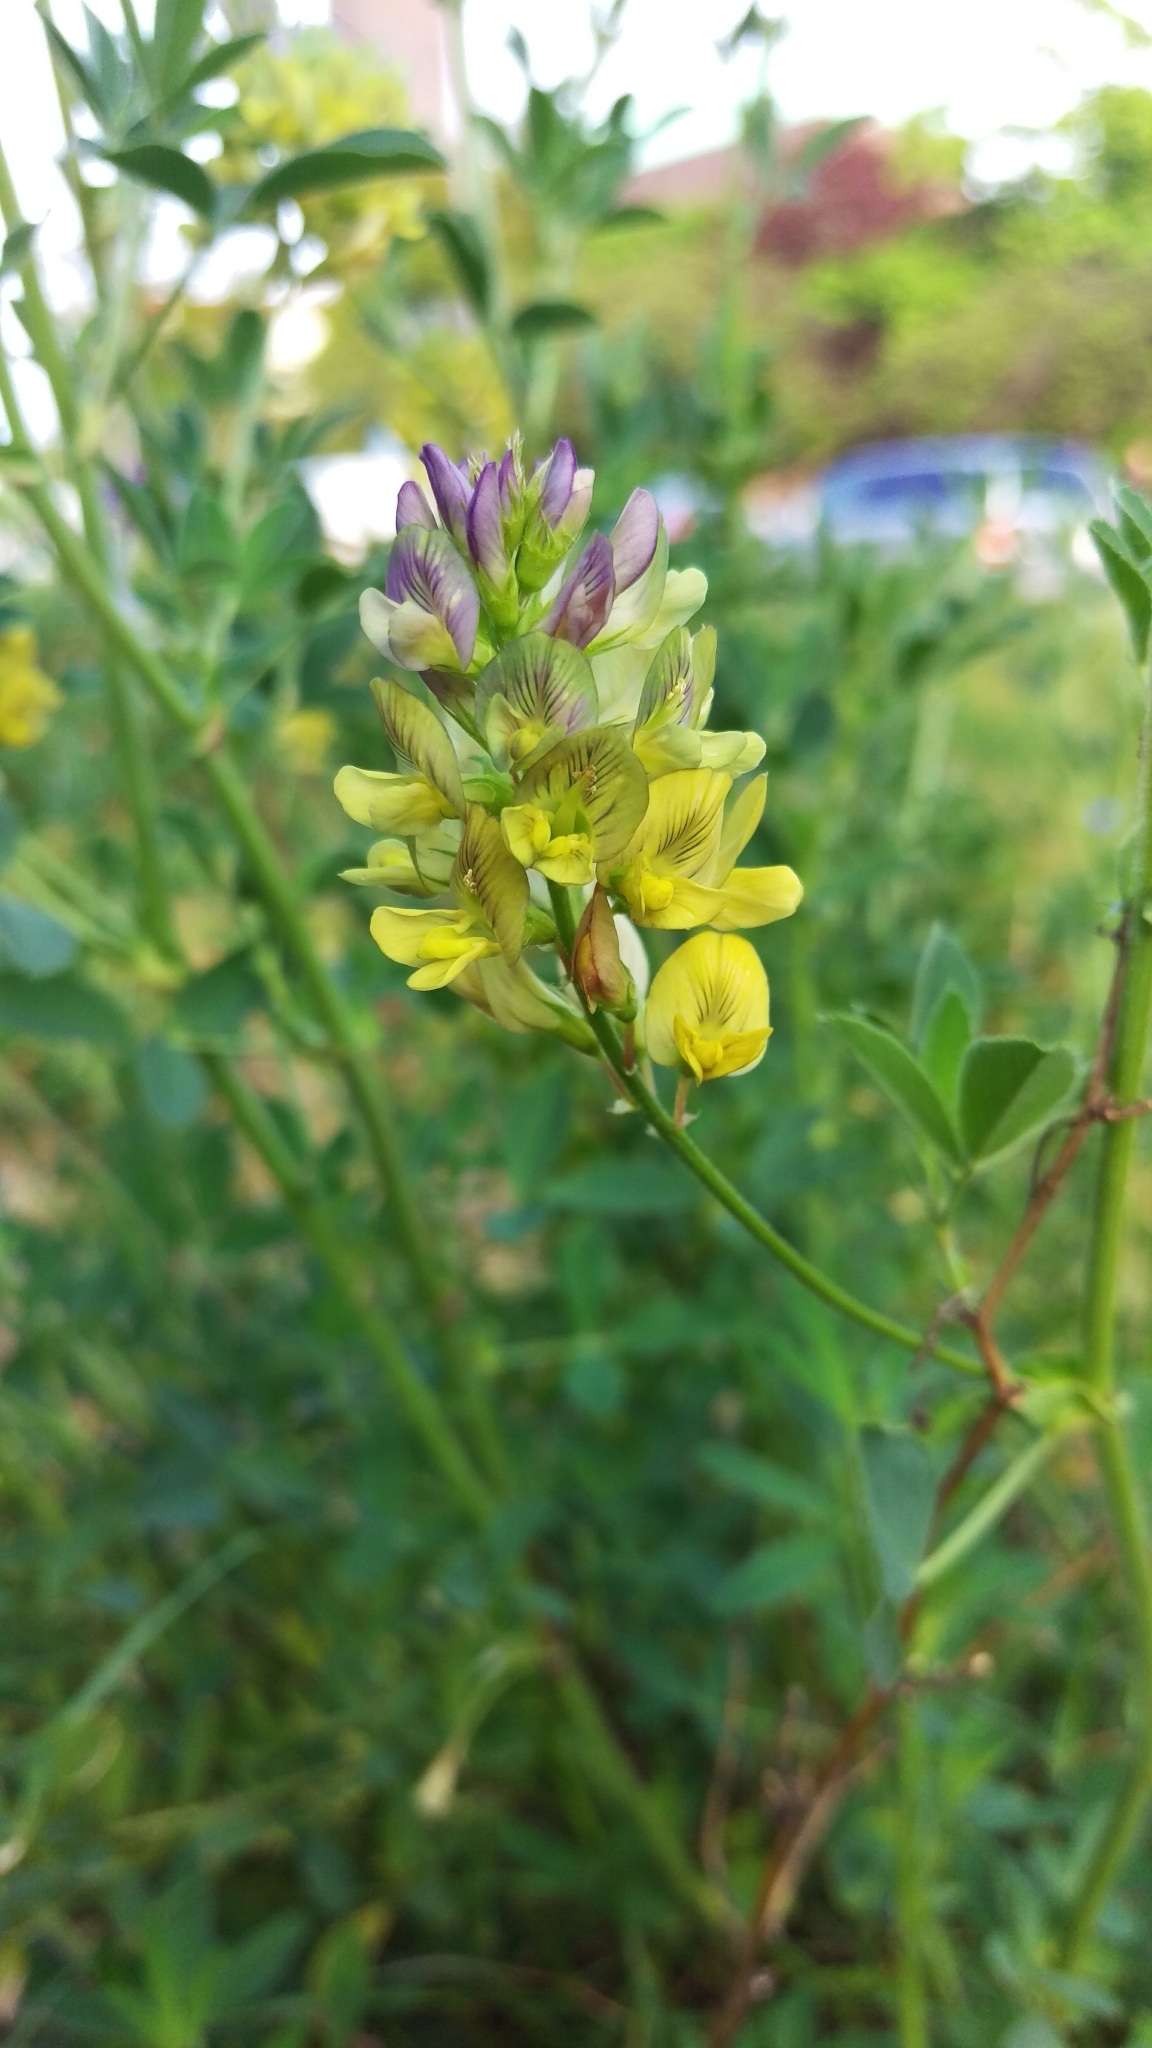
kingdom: Plantae
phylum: Tracheophyta
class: Magnoliopsida
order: Fabales
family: Fabaceae
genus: Medicago
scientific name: Medicago varia
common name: Sand lucerne
